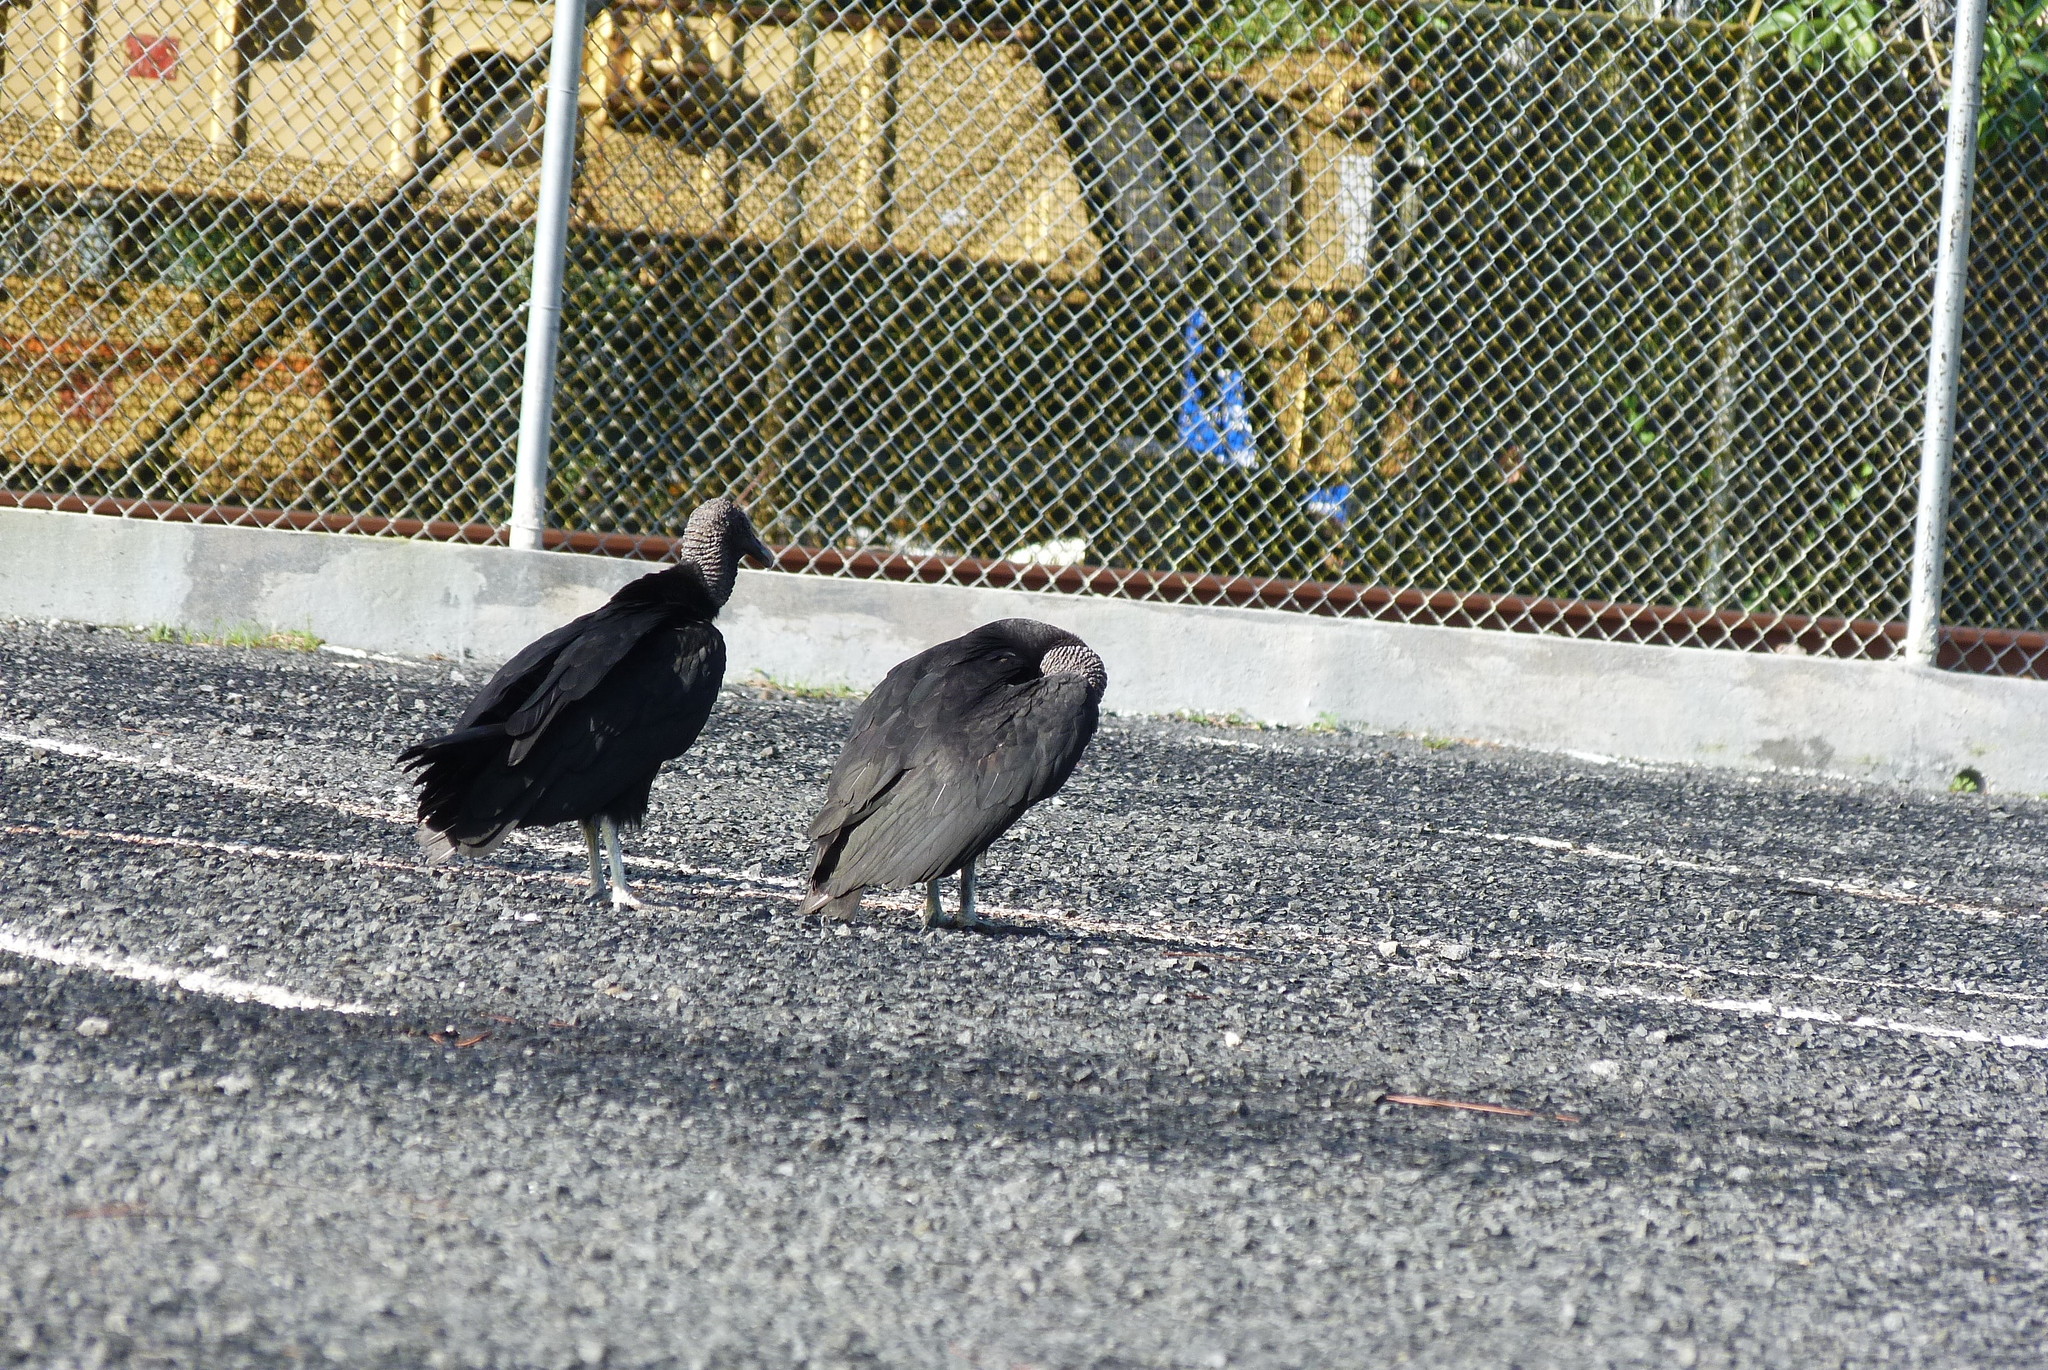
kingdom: Animalia
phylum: Chordata
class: Aves
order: Accipitriformes
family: Cathartidae
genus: Coragyps
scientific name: Coragyps atratus
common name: Black vulture
